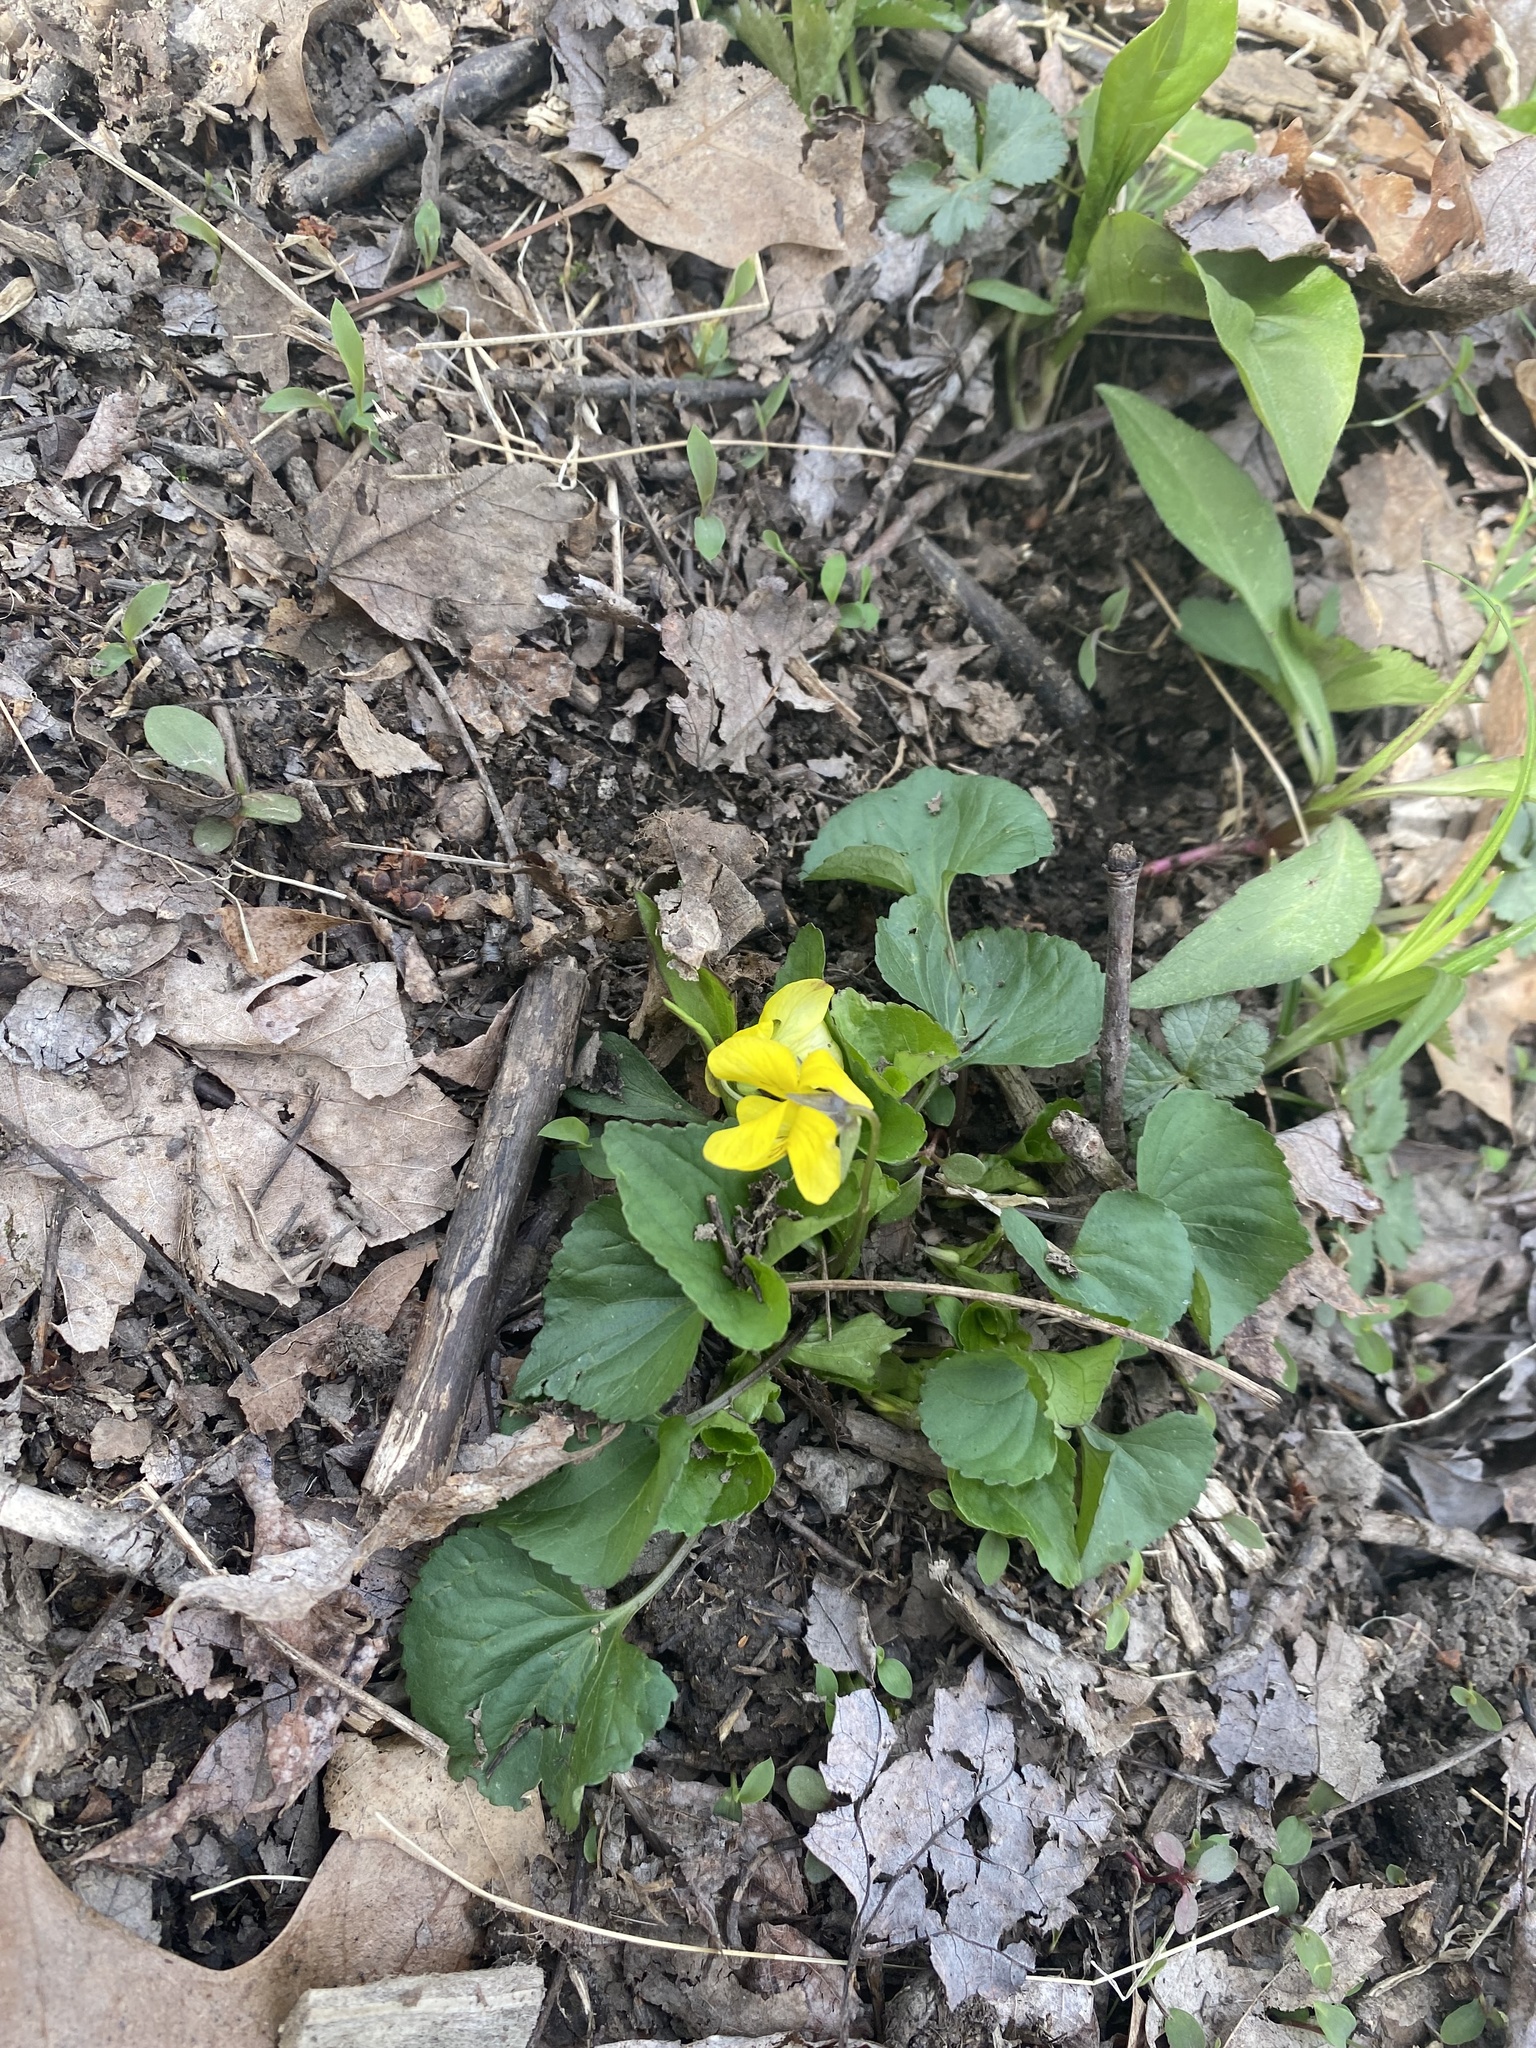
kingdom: Plantae
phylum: Tracheophyta
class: Magnoliopsida
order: Malpighiales
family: Violaceae
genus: Viola
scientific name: Viola eriocarpa
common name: Smooth yellow violet
